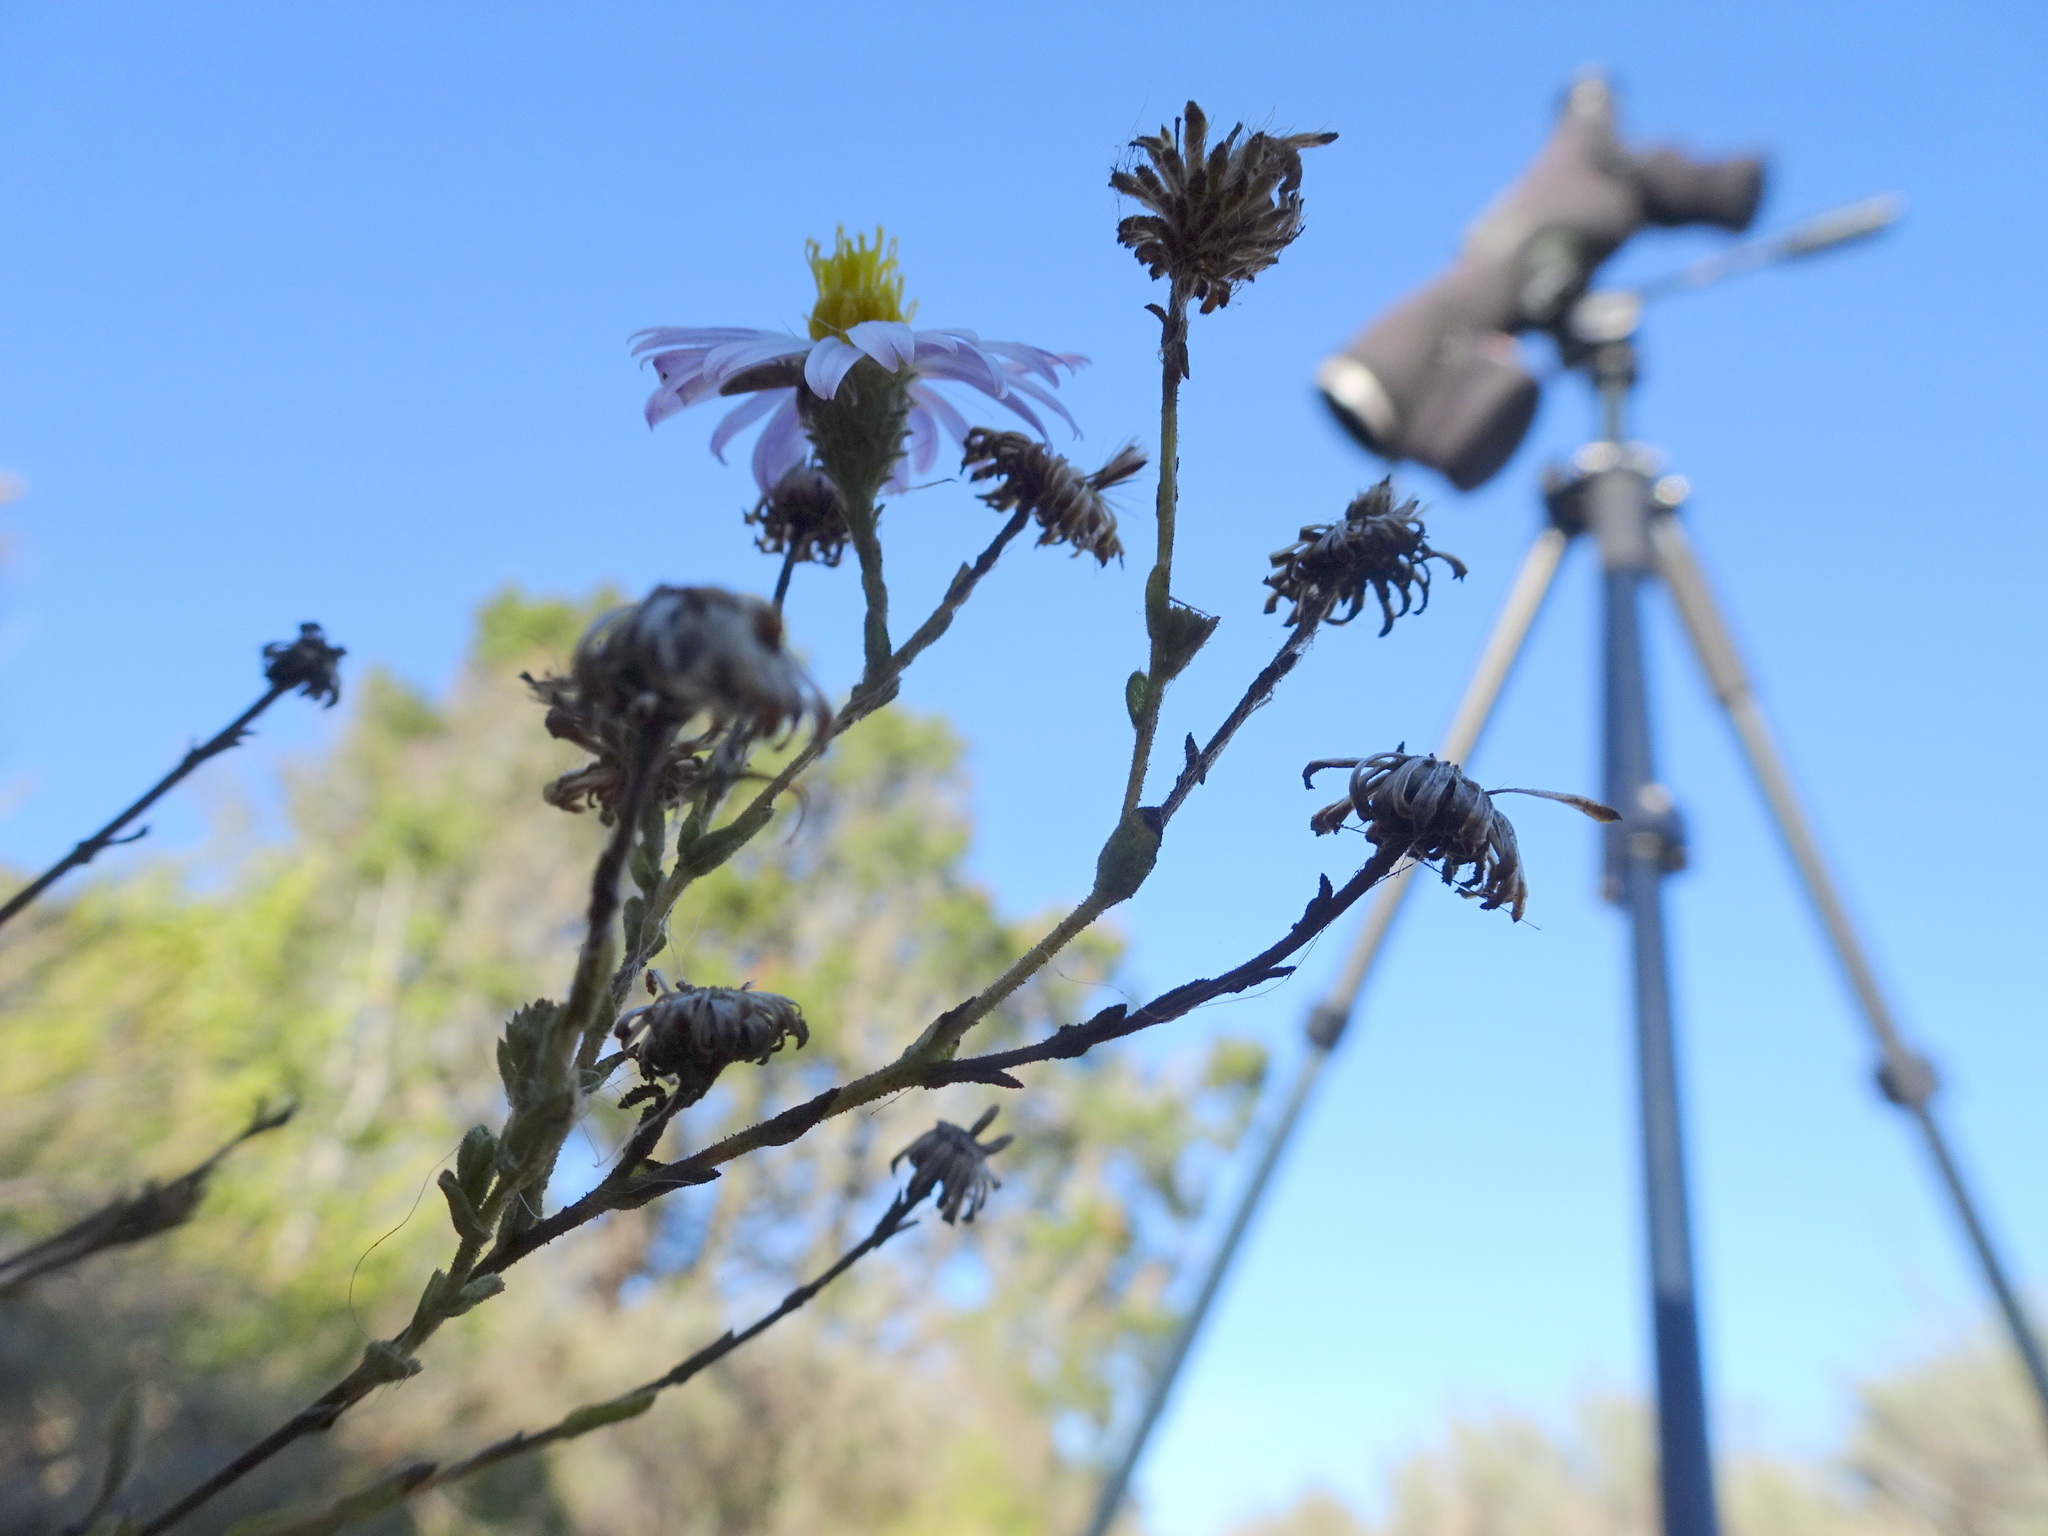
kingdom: Plantae
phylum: Tracheophyta
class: Magnoliopsida
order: Asterales
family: Asteraceae
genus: Corethrogyne
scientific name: Corethrogyne filaginifolia
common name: Sand-aster
